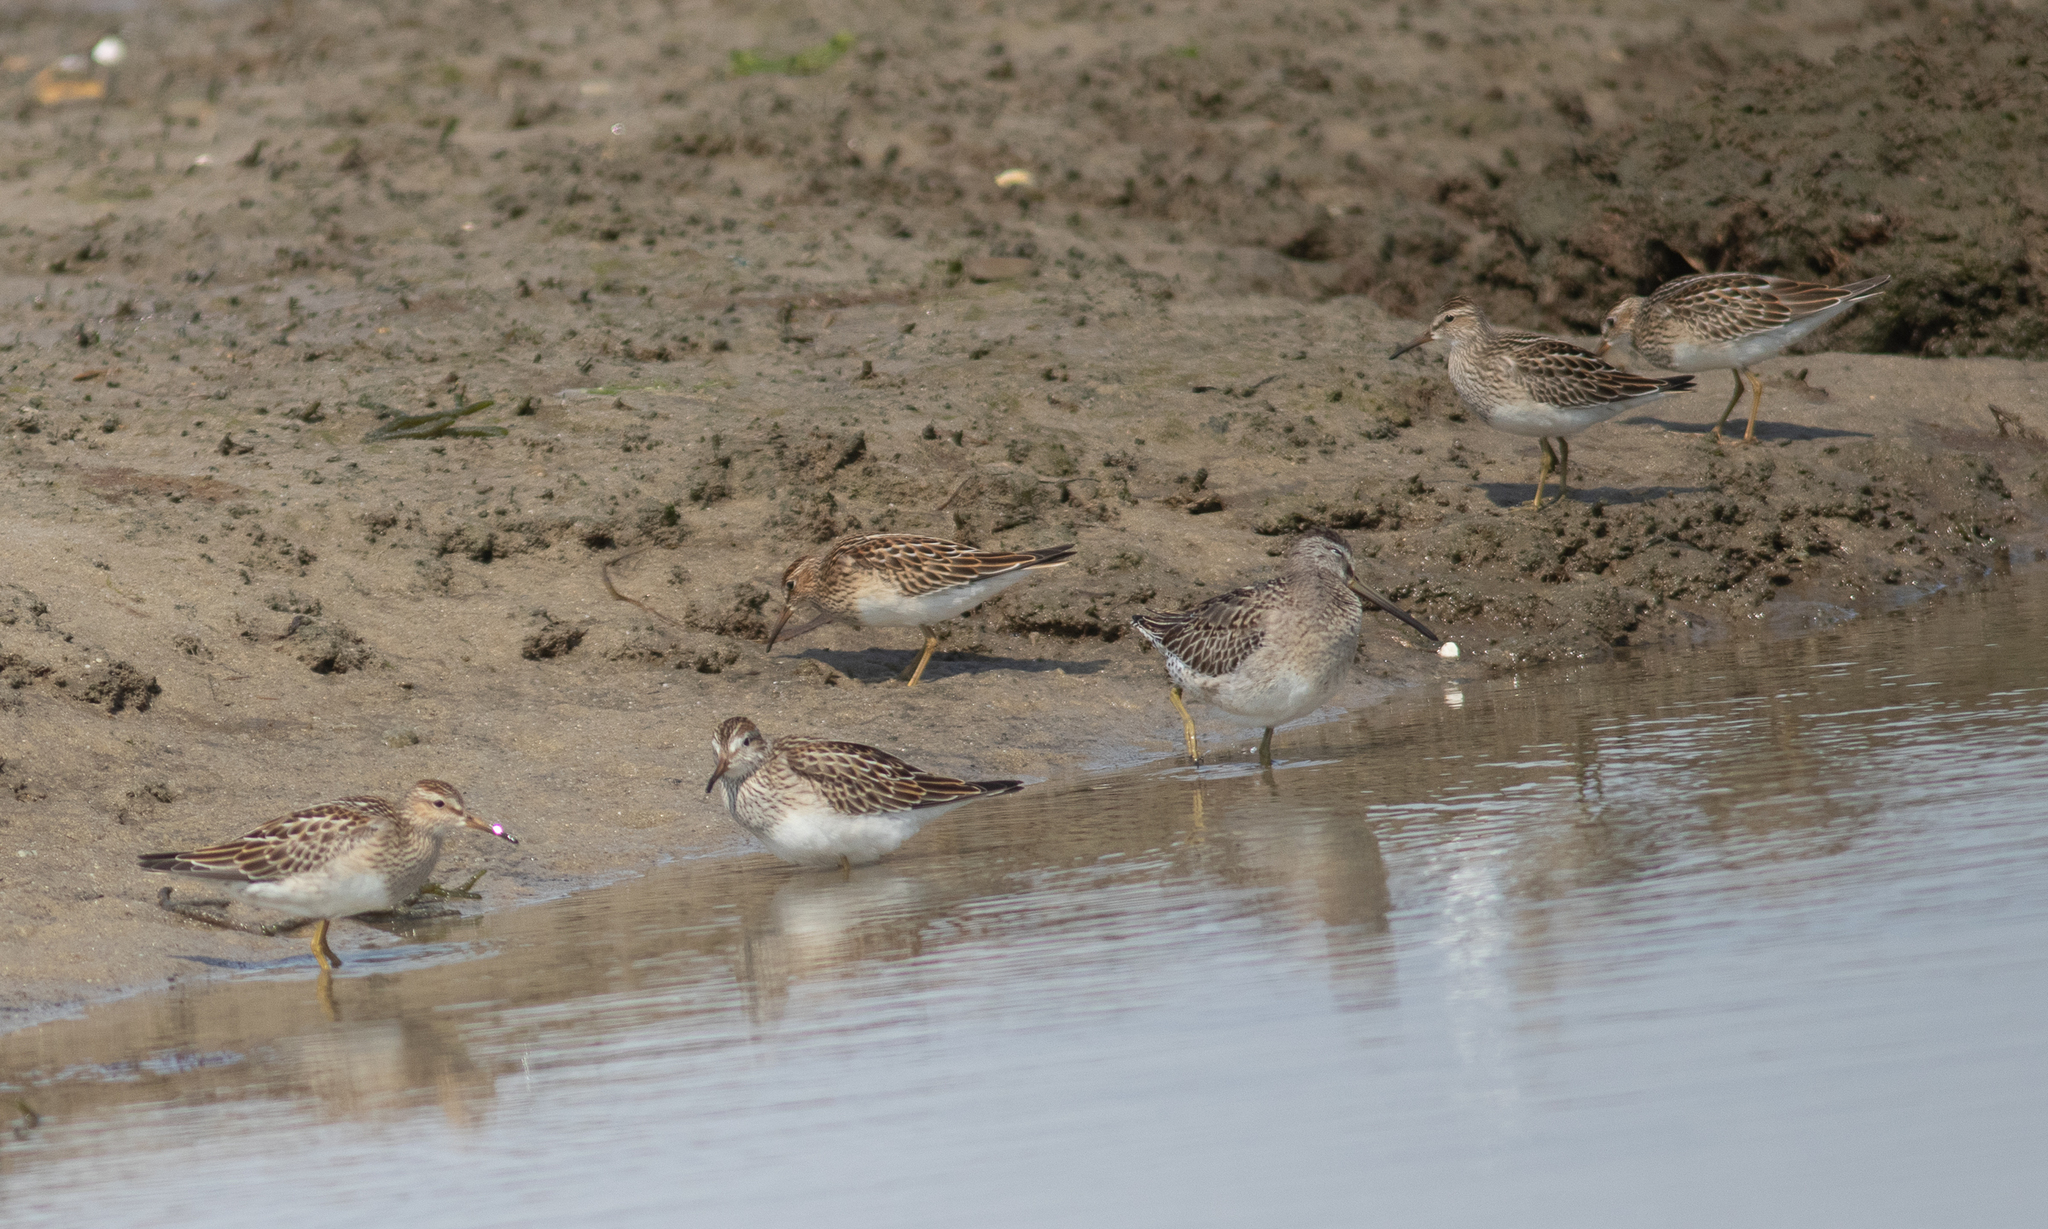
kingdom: Animalia
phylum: Chordata
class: Aves
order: Charadriiformes
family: Scolopacidae
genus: Calidris
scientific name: Calidris melanotos
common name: Pectoral sandpiper
